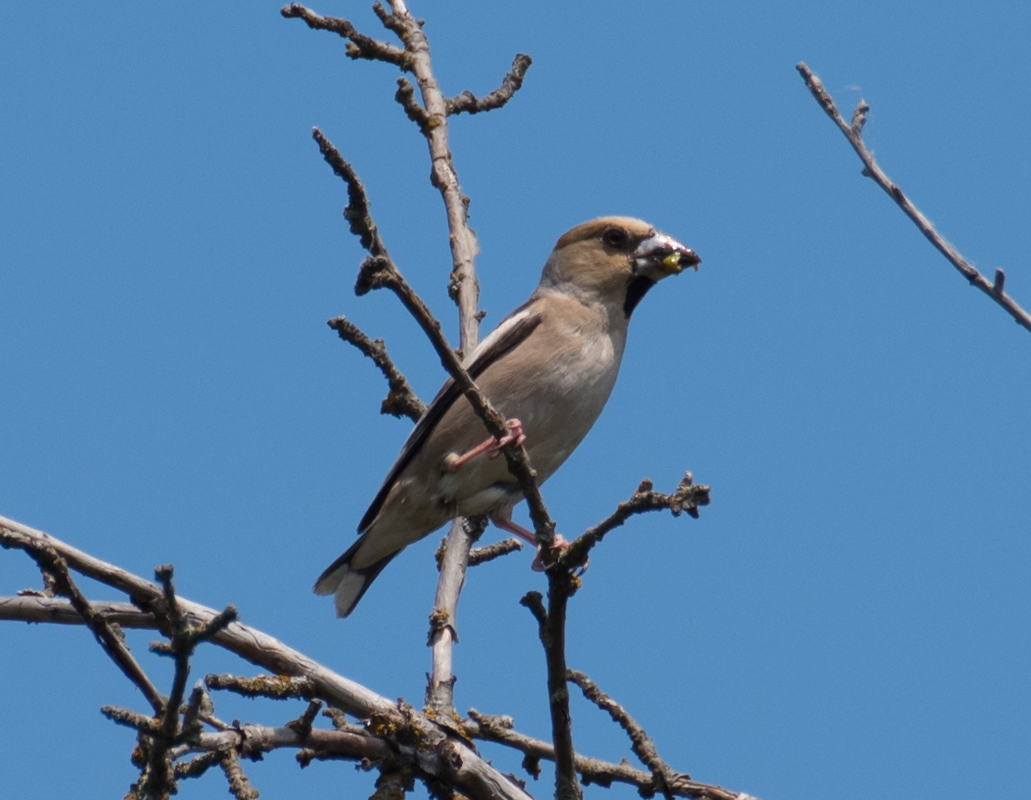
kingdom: Animalia
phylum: Chordata
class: Aves
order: Passeriformes
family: Fringillidae
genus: Coccothraustes
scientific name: Coccothraustes coccothraustes
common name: Hawfinch
